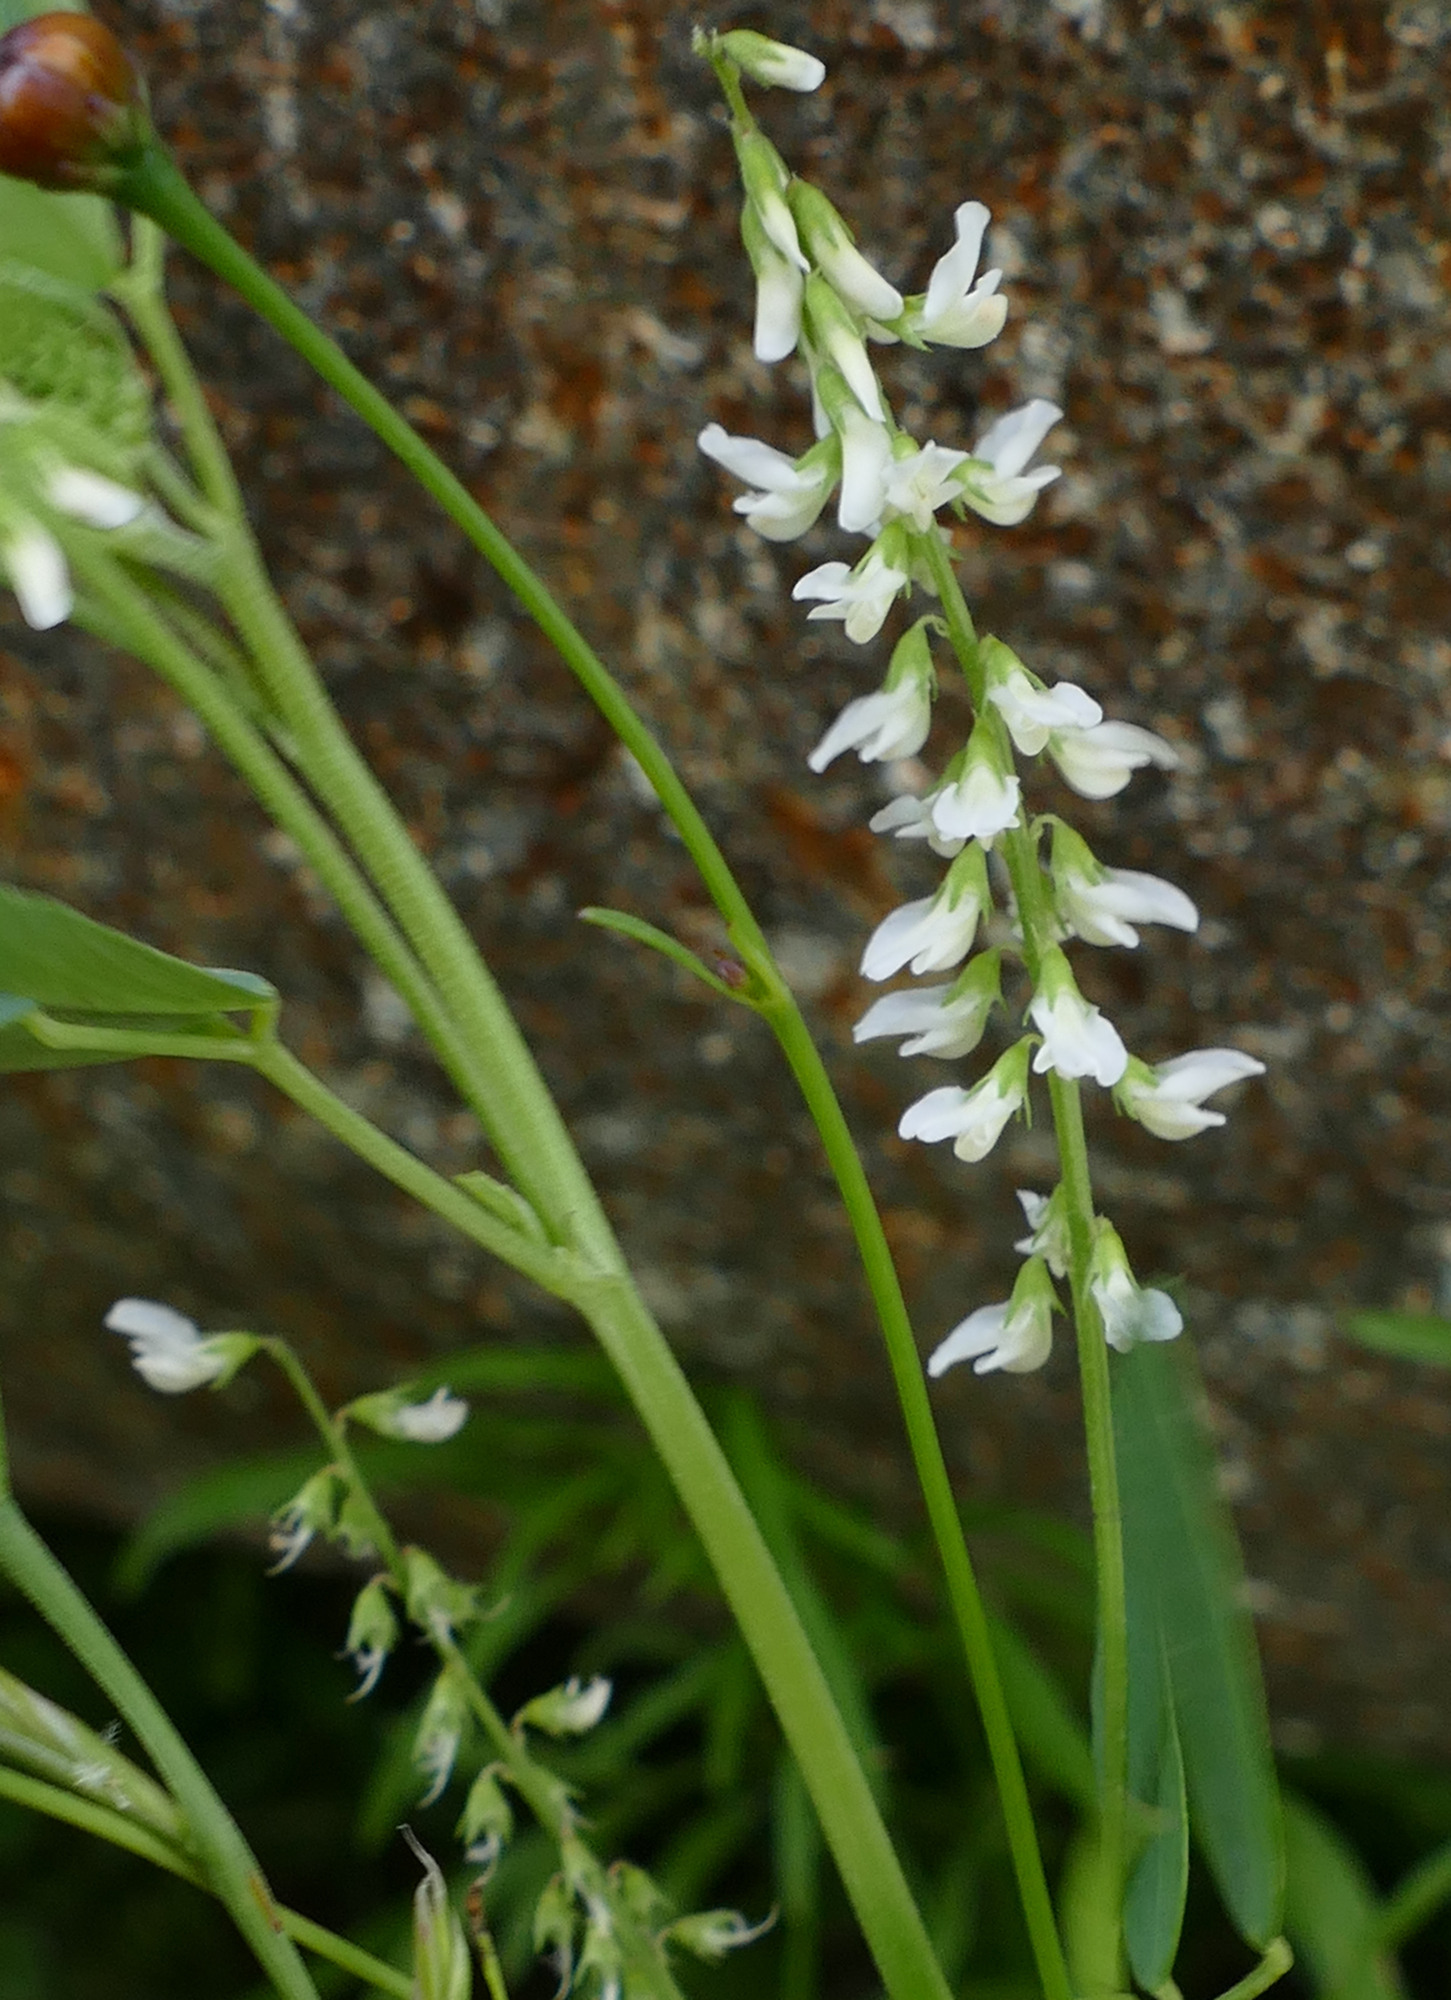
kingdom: Plantae
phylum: Tracheophyta
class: Magnoliopsida
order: Fabales
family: Fabaceae
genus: Melilotus
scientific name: Melilotus albus
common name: White melilot
